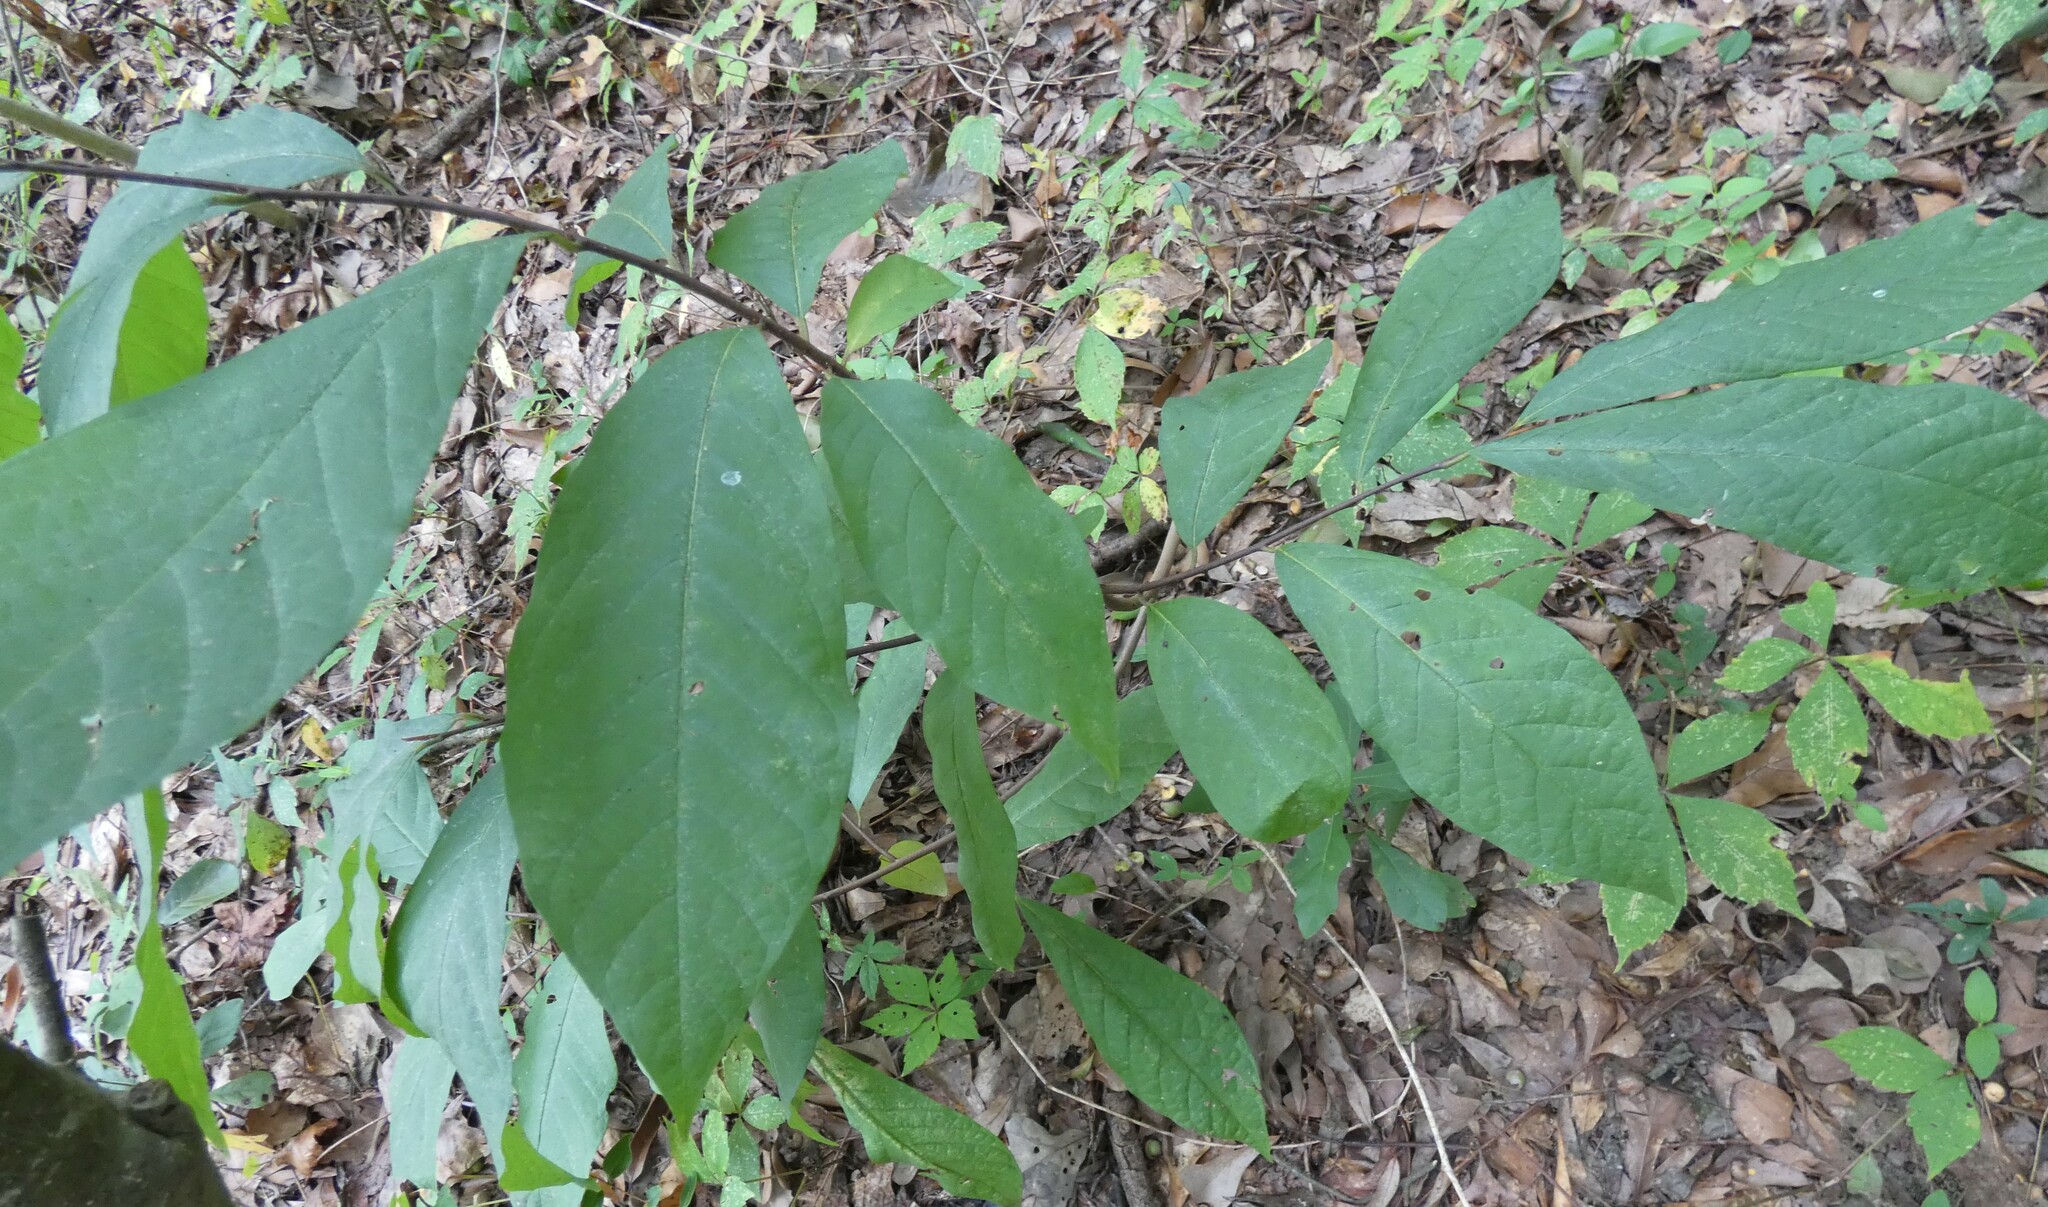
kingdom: Plantae
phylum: Tracheophyta
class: Magnoliopsida
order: Magnoliales
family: Annonaceae
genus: Asimina
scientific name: Asimina triloba
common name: Dog-banana
